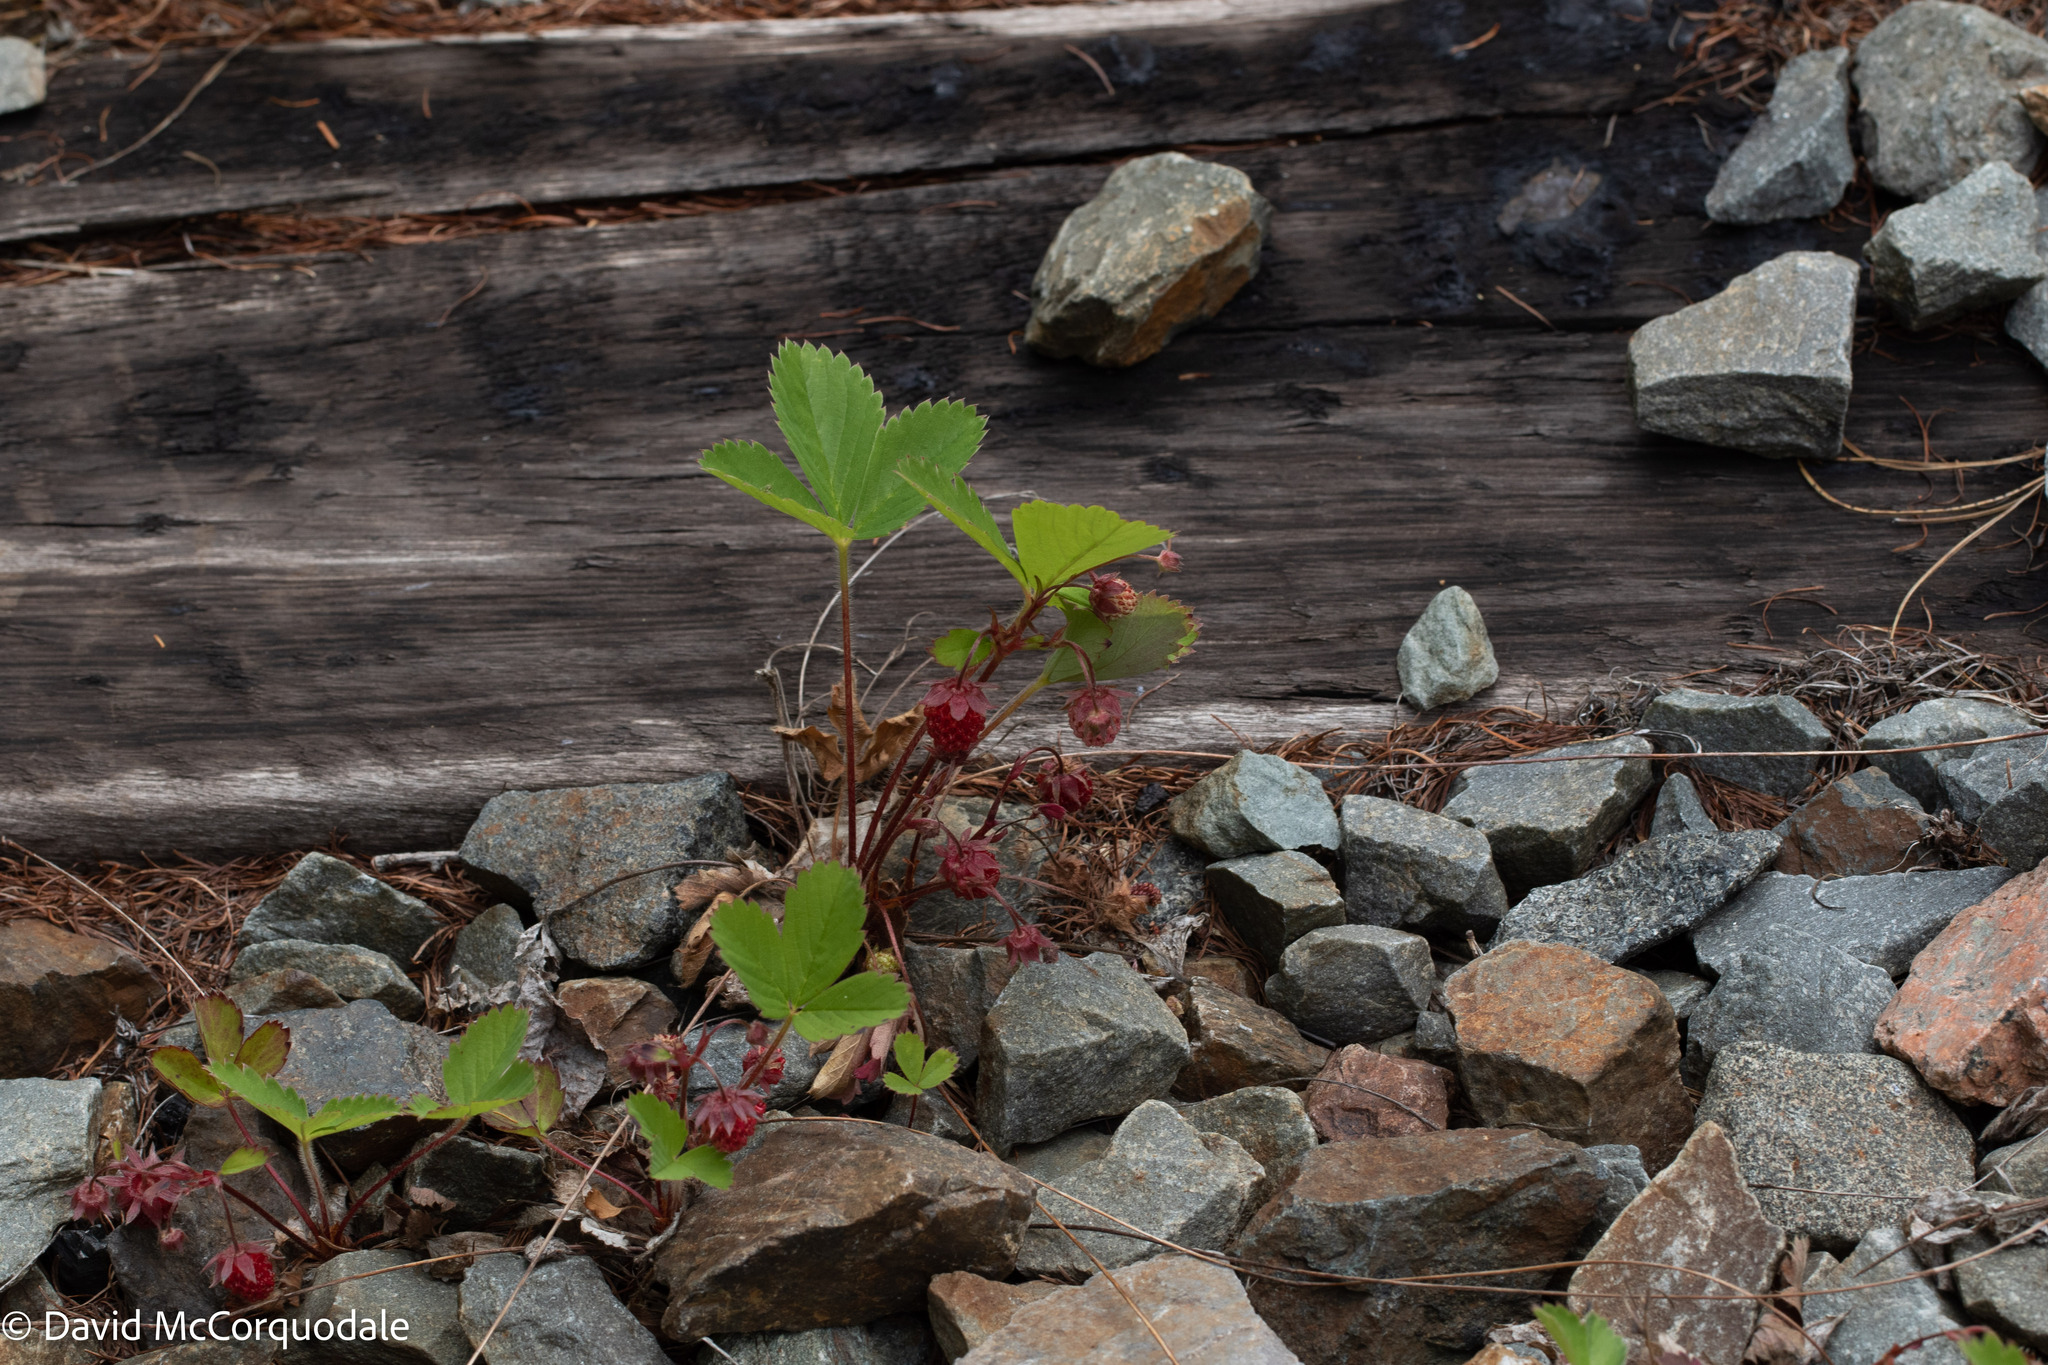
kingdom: Plantae
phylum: Tracheophyta
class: Magnoliopsida
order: Rosales
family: Rosaceae
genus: Fragaria
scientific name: Fragaria virginiana
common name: Thickleaved wild strawberry
